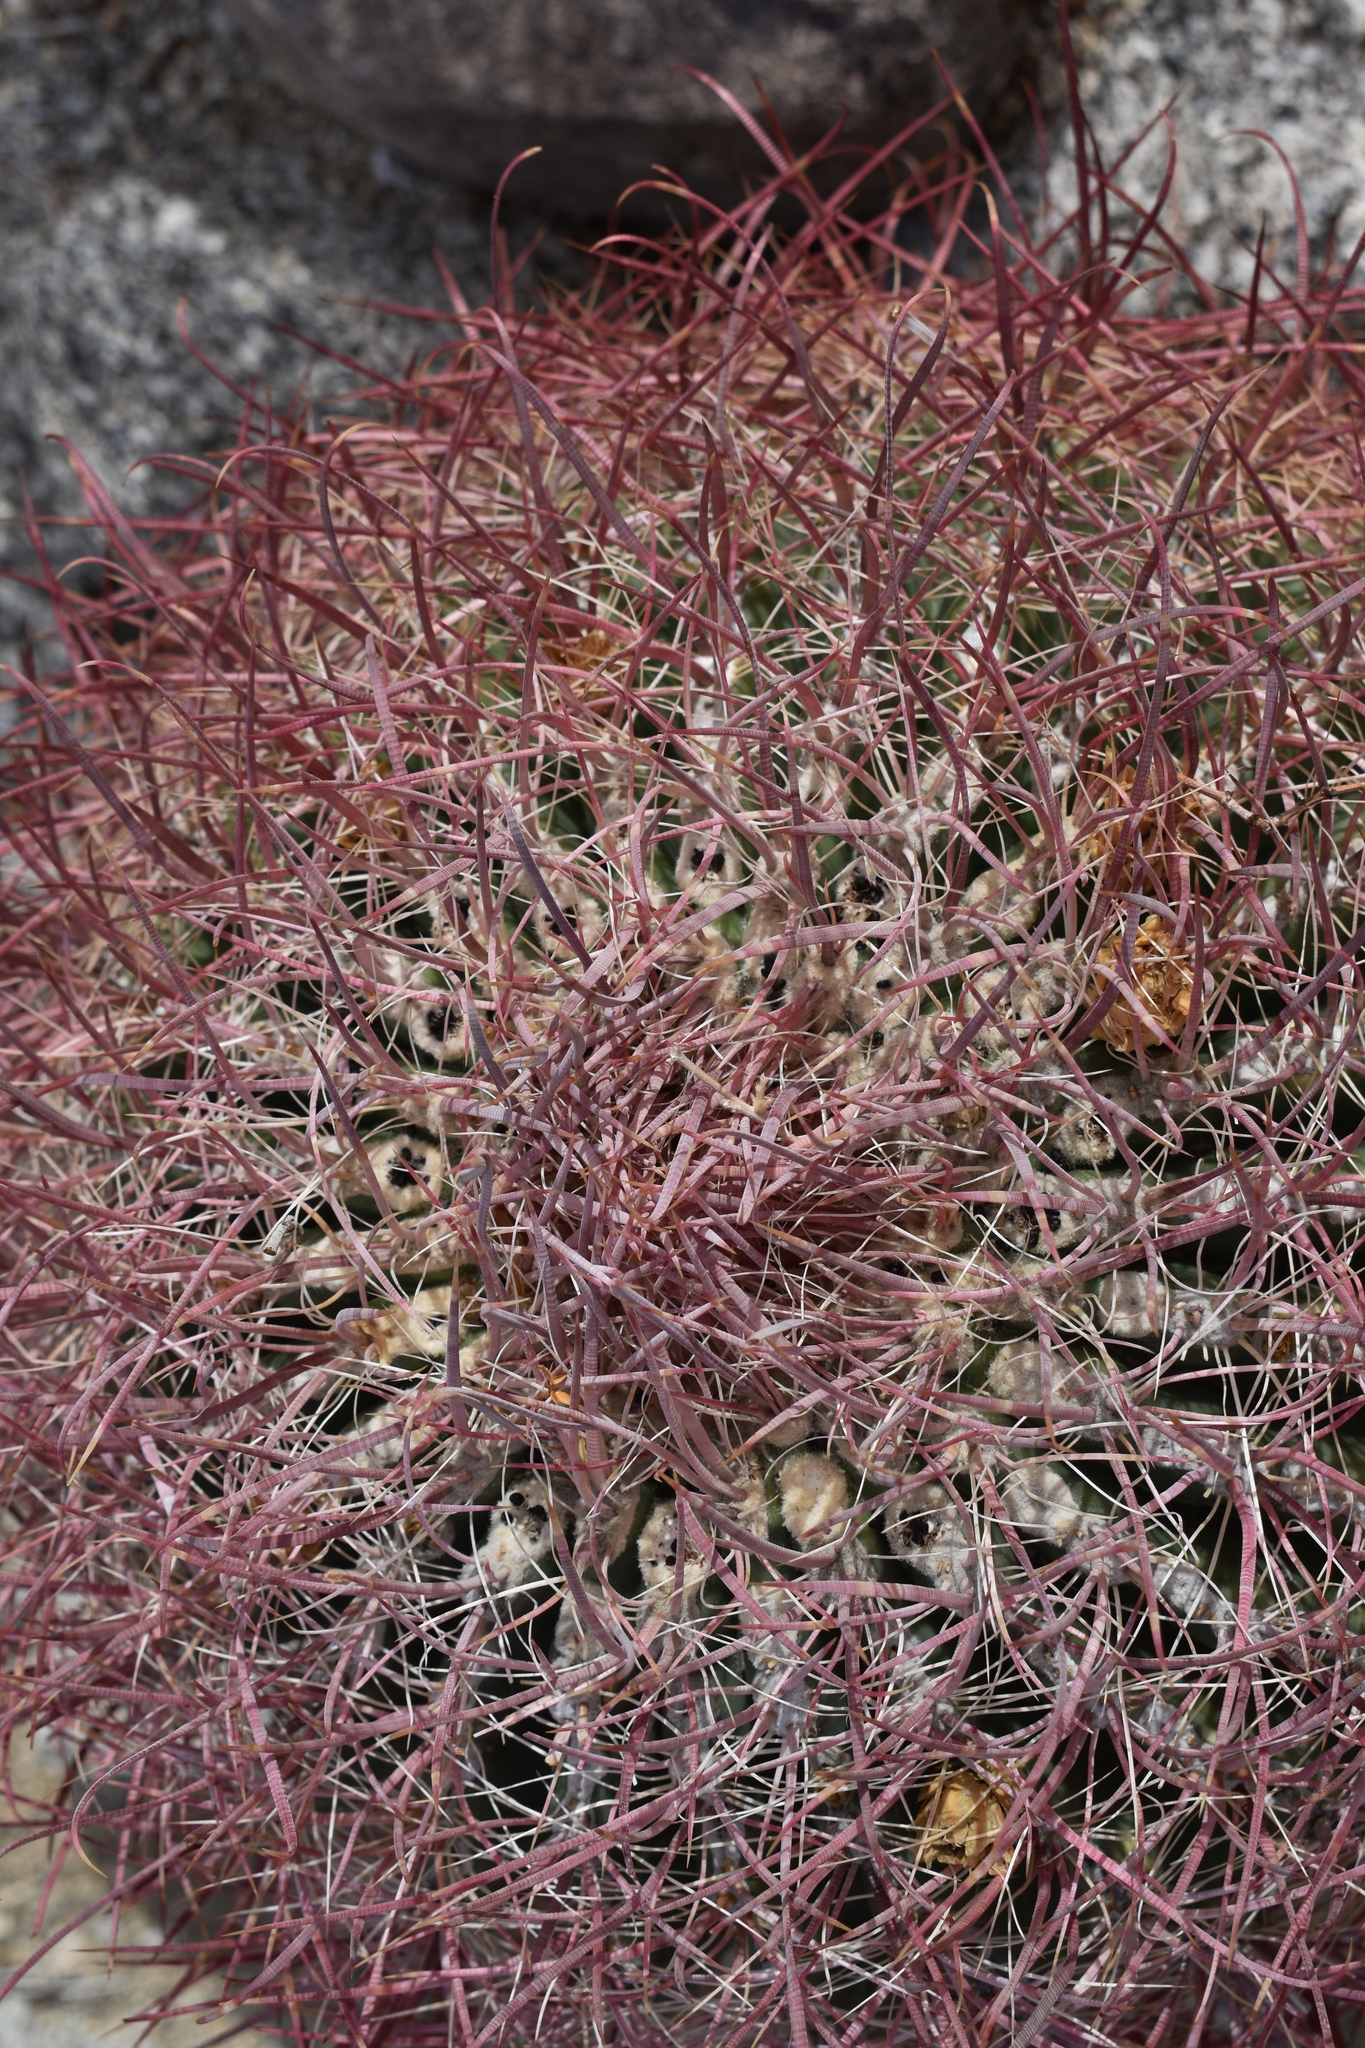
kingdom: Plantae
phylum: Tracheophyta
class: Magnoliopsida
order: Caryophyllales
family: Cactaceae
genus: Ferocactus
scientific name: Ferocactus cylindraceus
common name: California barrel cactus
